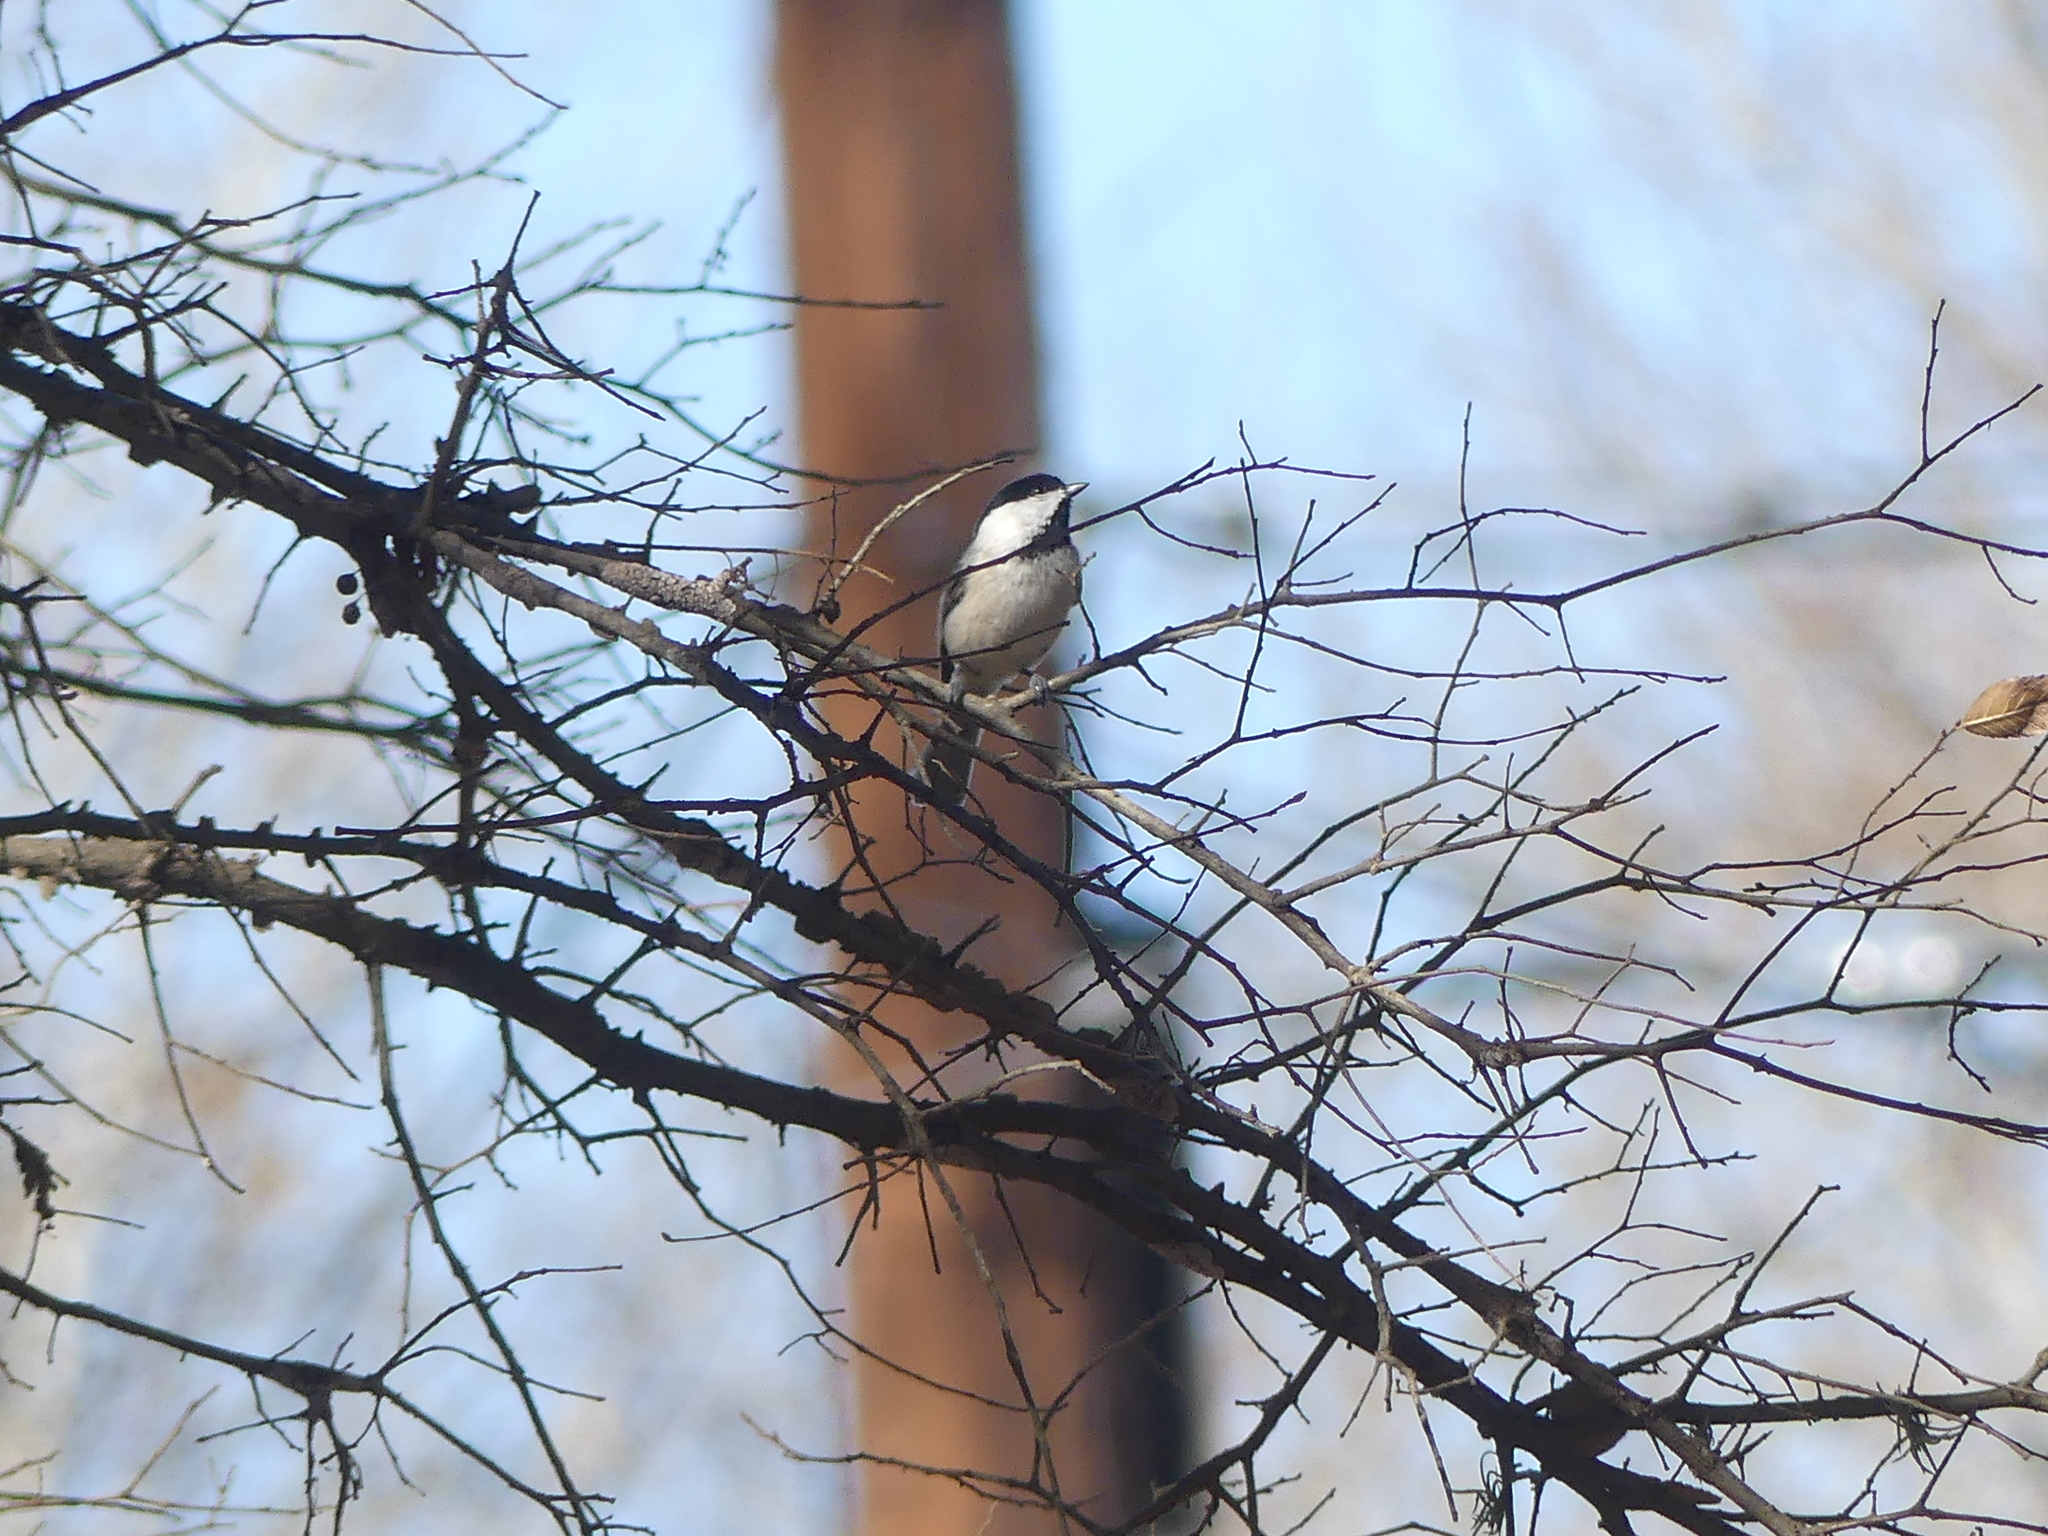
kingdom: Animalia
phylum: Chordata
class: Aves
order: Passeriformes
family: Paridae
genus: Poecile
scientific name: Poecile carolinensis
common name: Carolina chickadee
